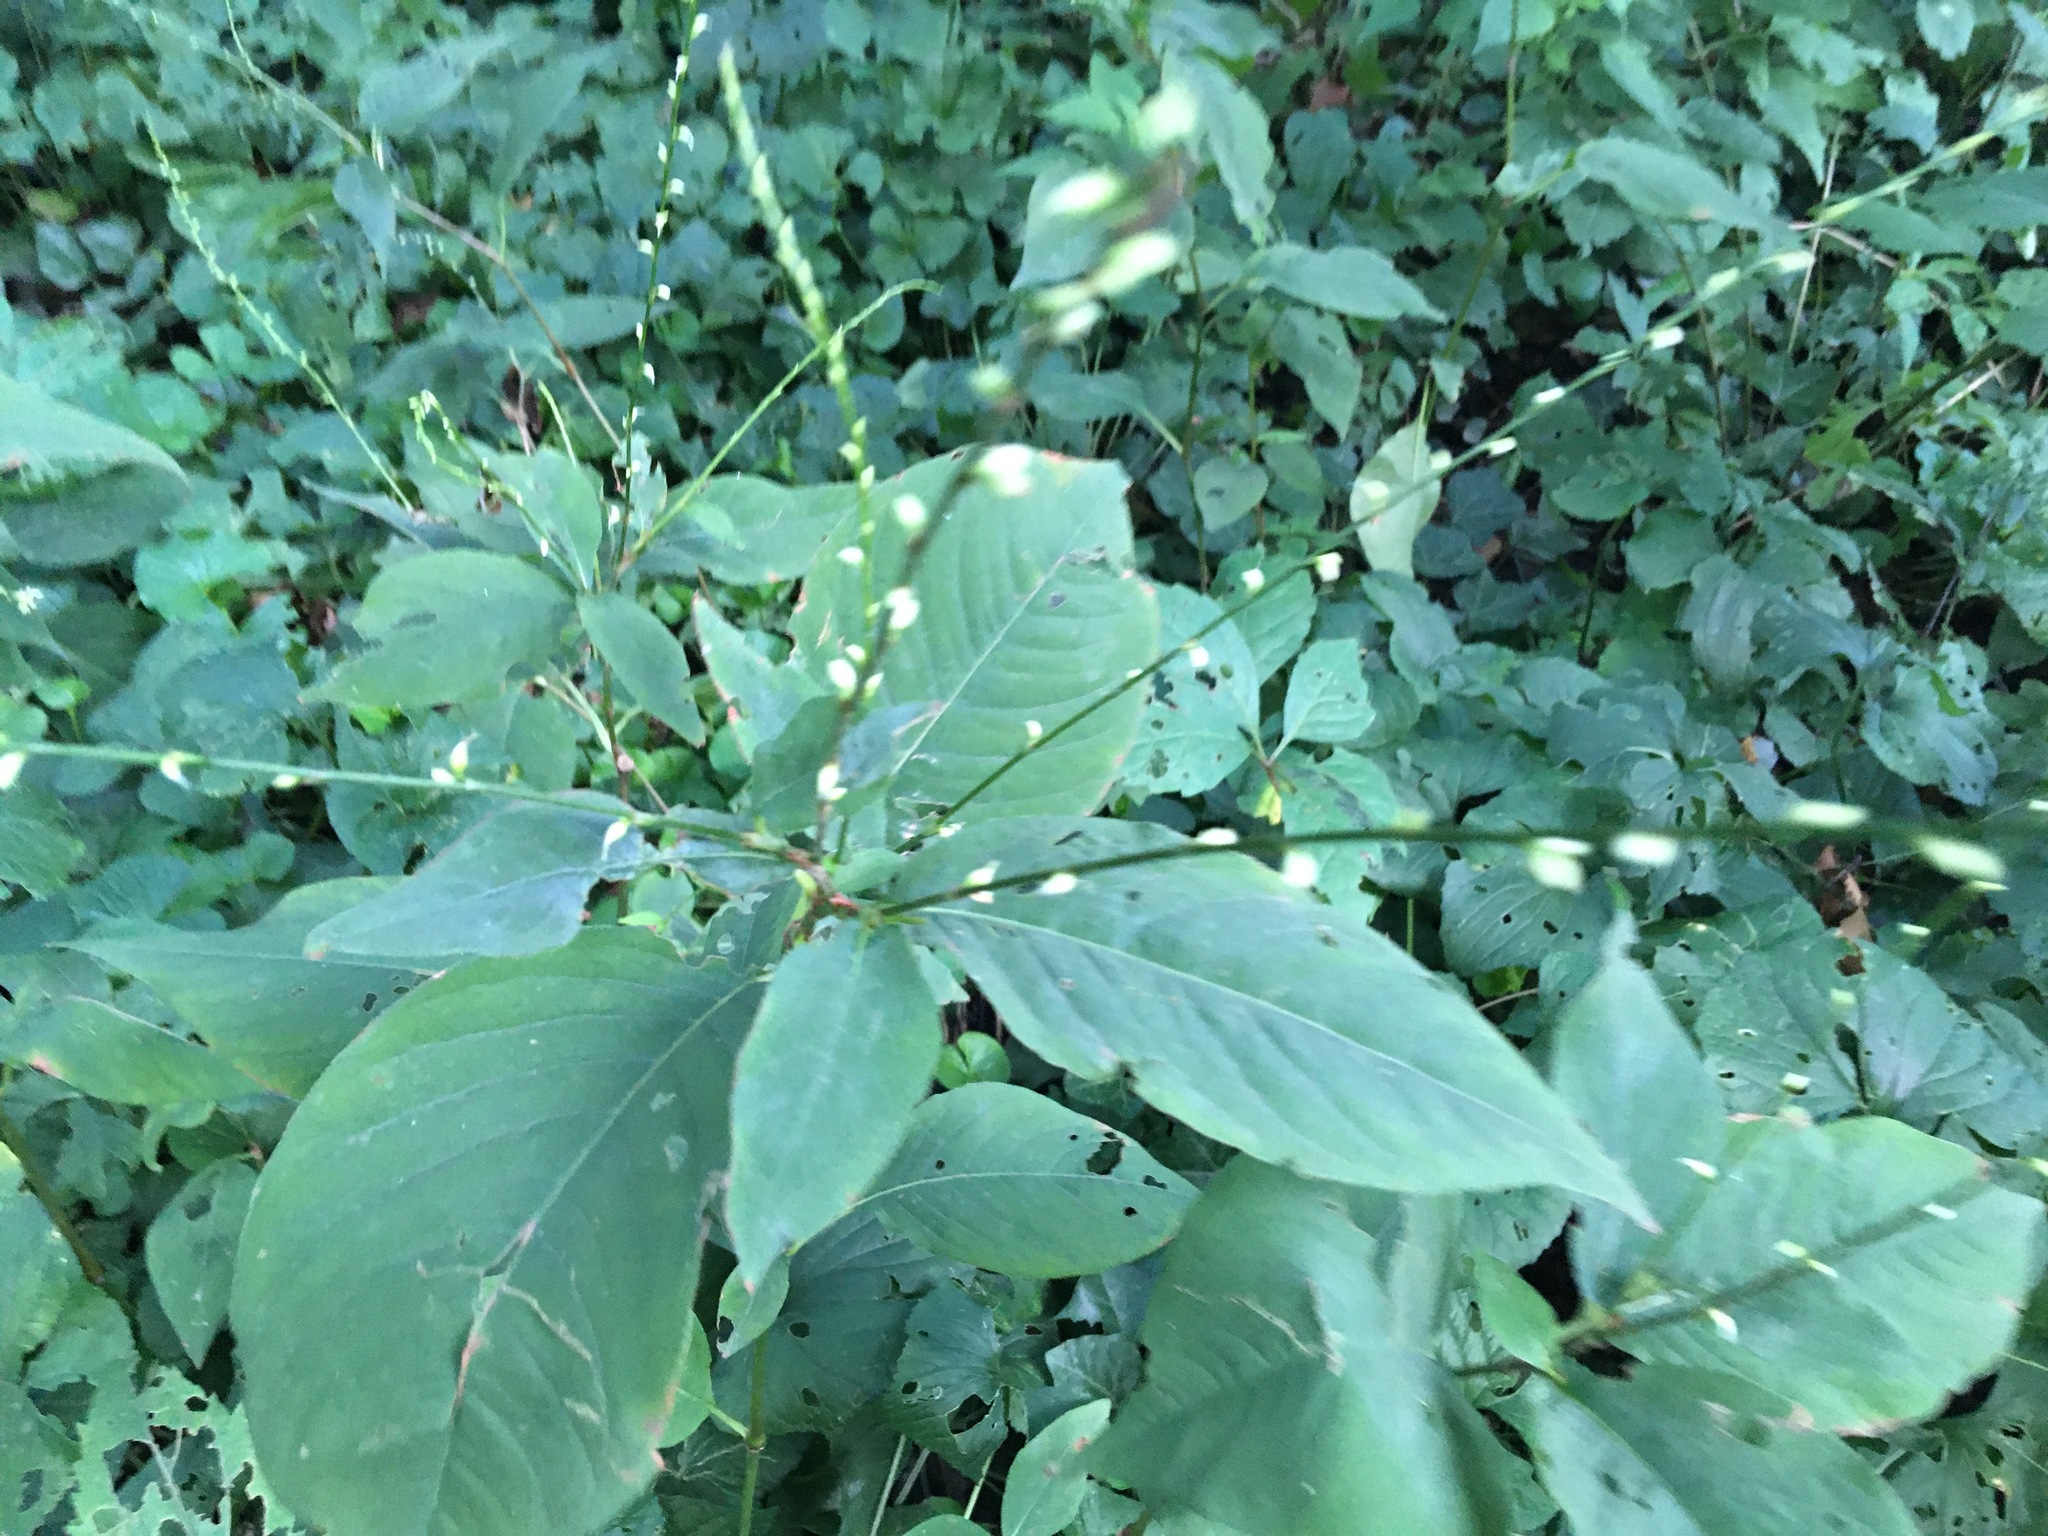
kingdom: Plantae
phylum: Tracheophyta
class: Magnoliopsida
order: Caryophyllales
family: Polygonaceae
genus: Persicaria
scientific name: Persicaria virginiana
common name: Jumpseed
